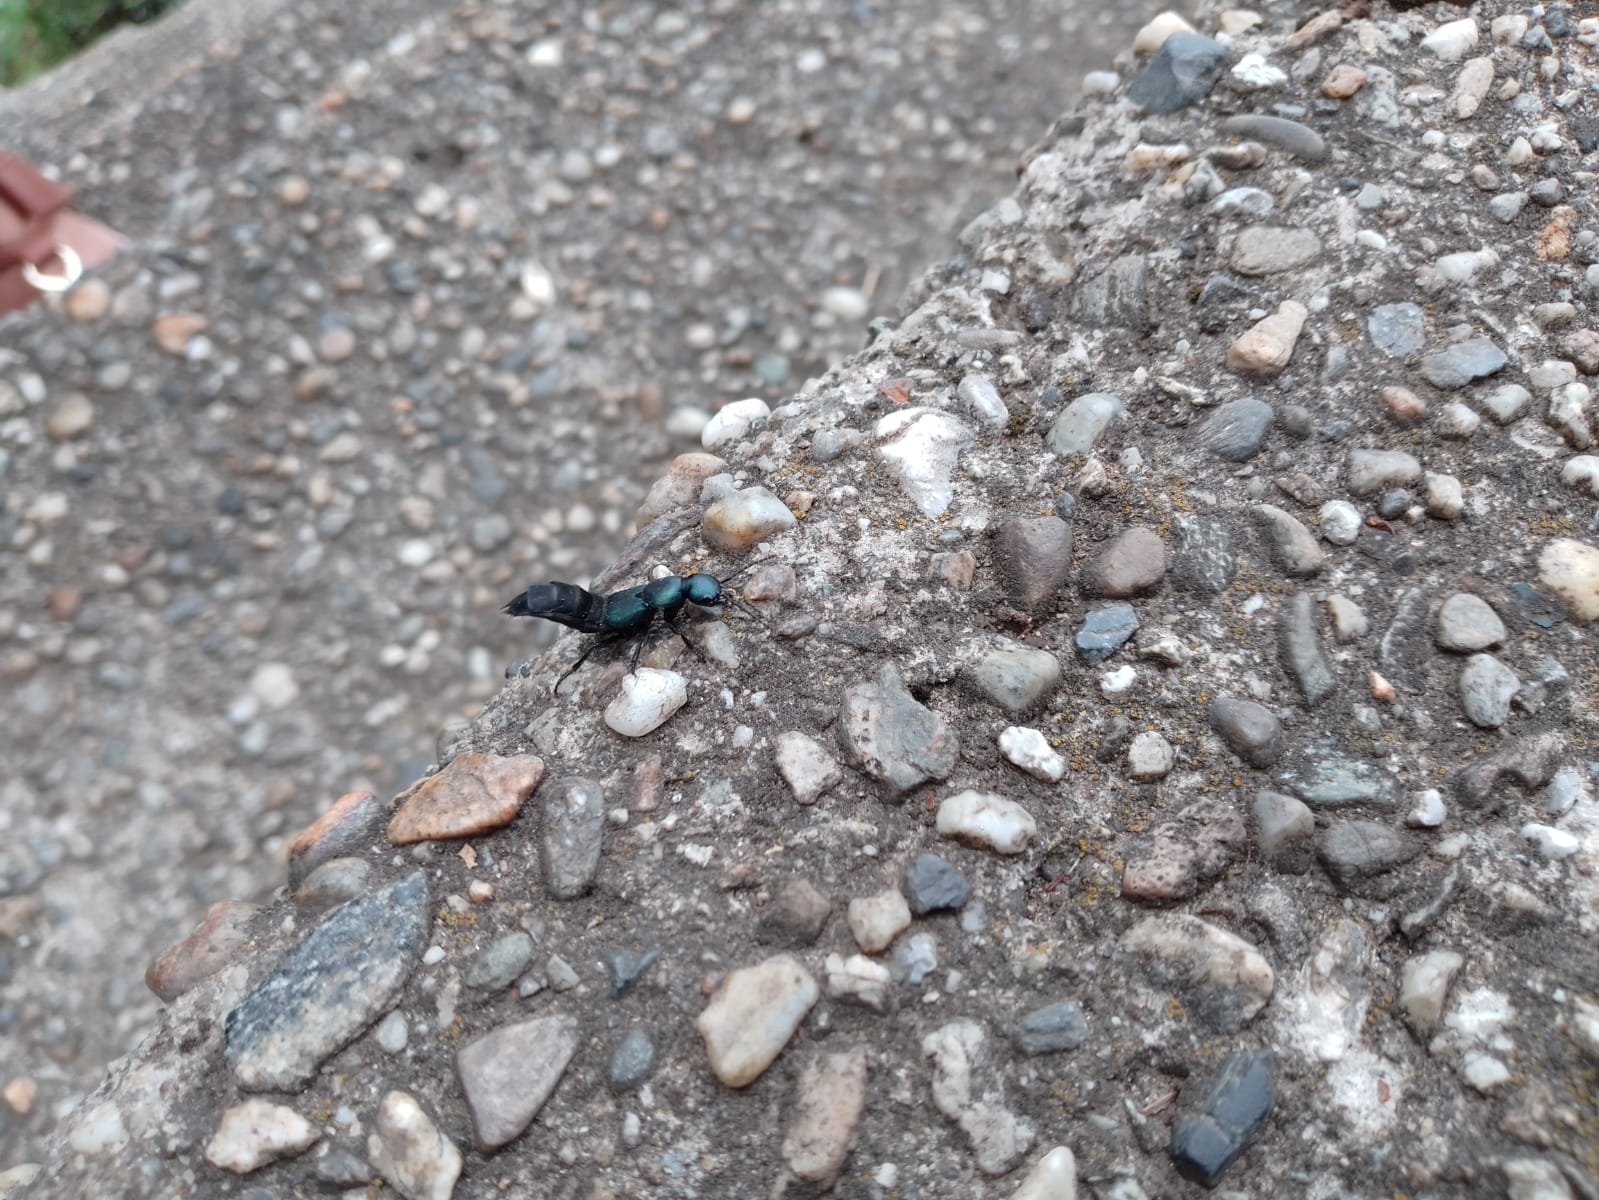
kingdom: Animalia
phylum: Arthropoda
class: Insecta
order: Coleoptera
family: Staphylinidae
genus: Ocypus
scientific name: Ocypus ophthalmicus
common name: Blue rove-beetle
